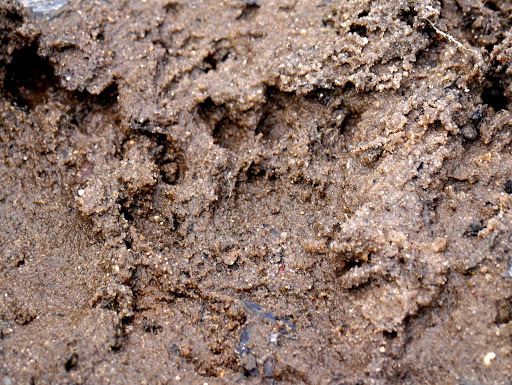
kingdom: Animalia
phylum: Chordata
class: Mammalia
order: Carnivora
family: Mustelidae
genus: Lontra
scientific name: Lontra canadensis
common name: North american river otter
